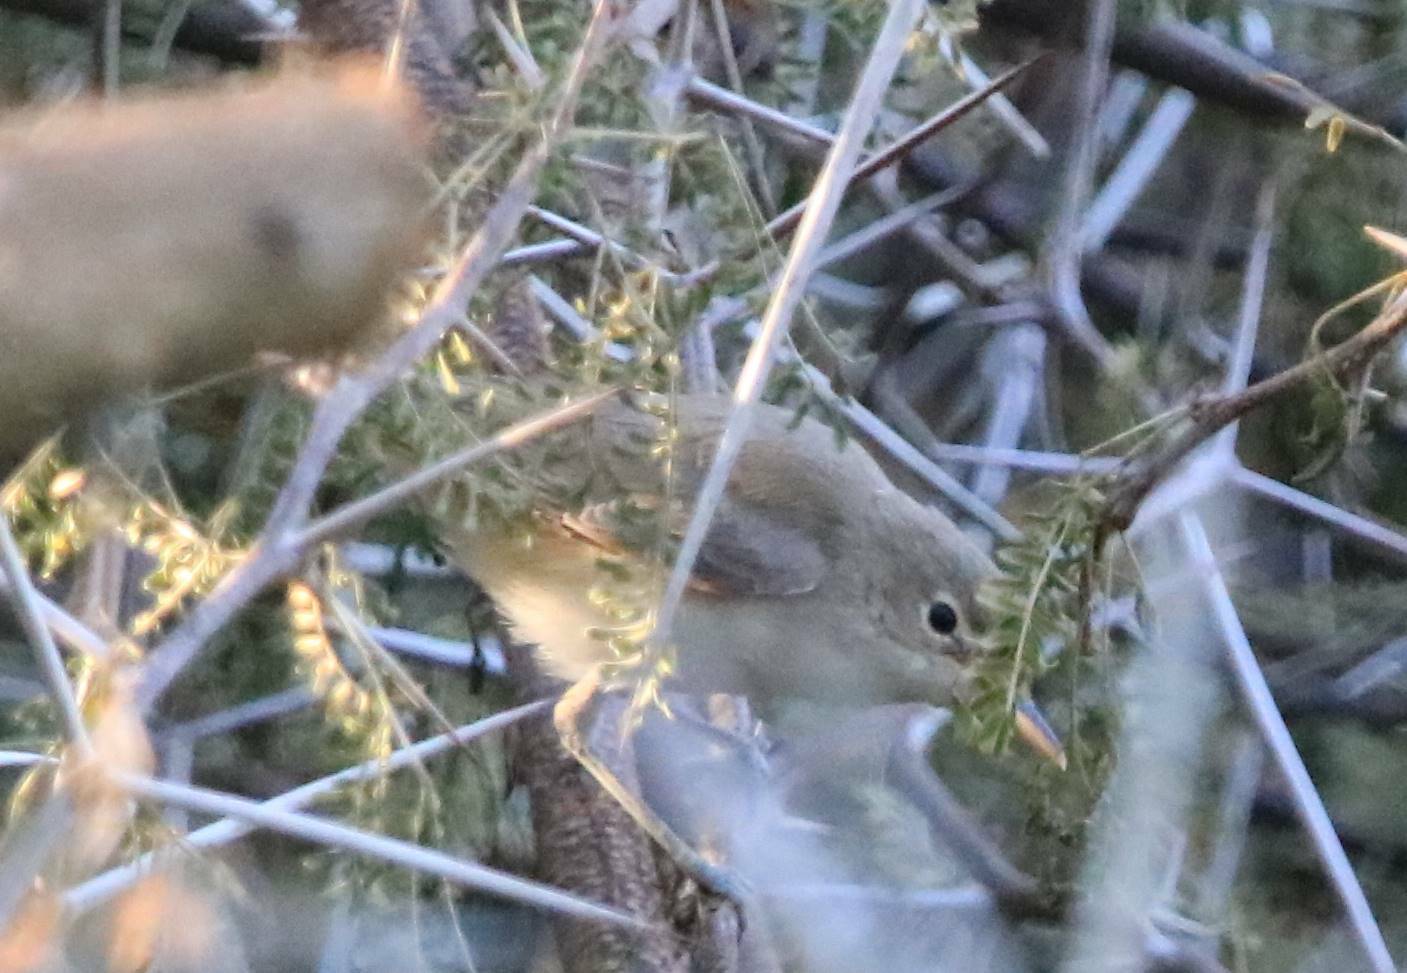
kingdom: Animalia
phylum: Chordata
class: Aves
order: Passeriformes
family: Acrocephalidae
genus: Acrocephalus
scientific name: Acrocephalus scirpaceus
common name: Eurasian reed warbler
